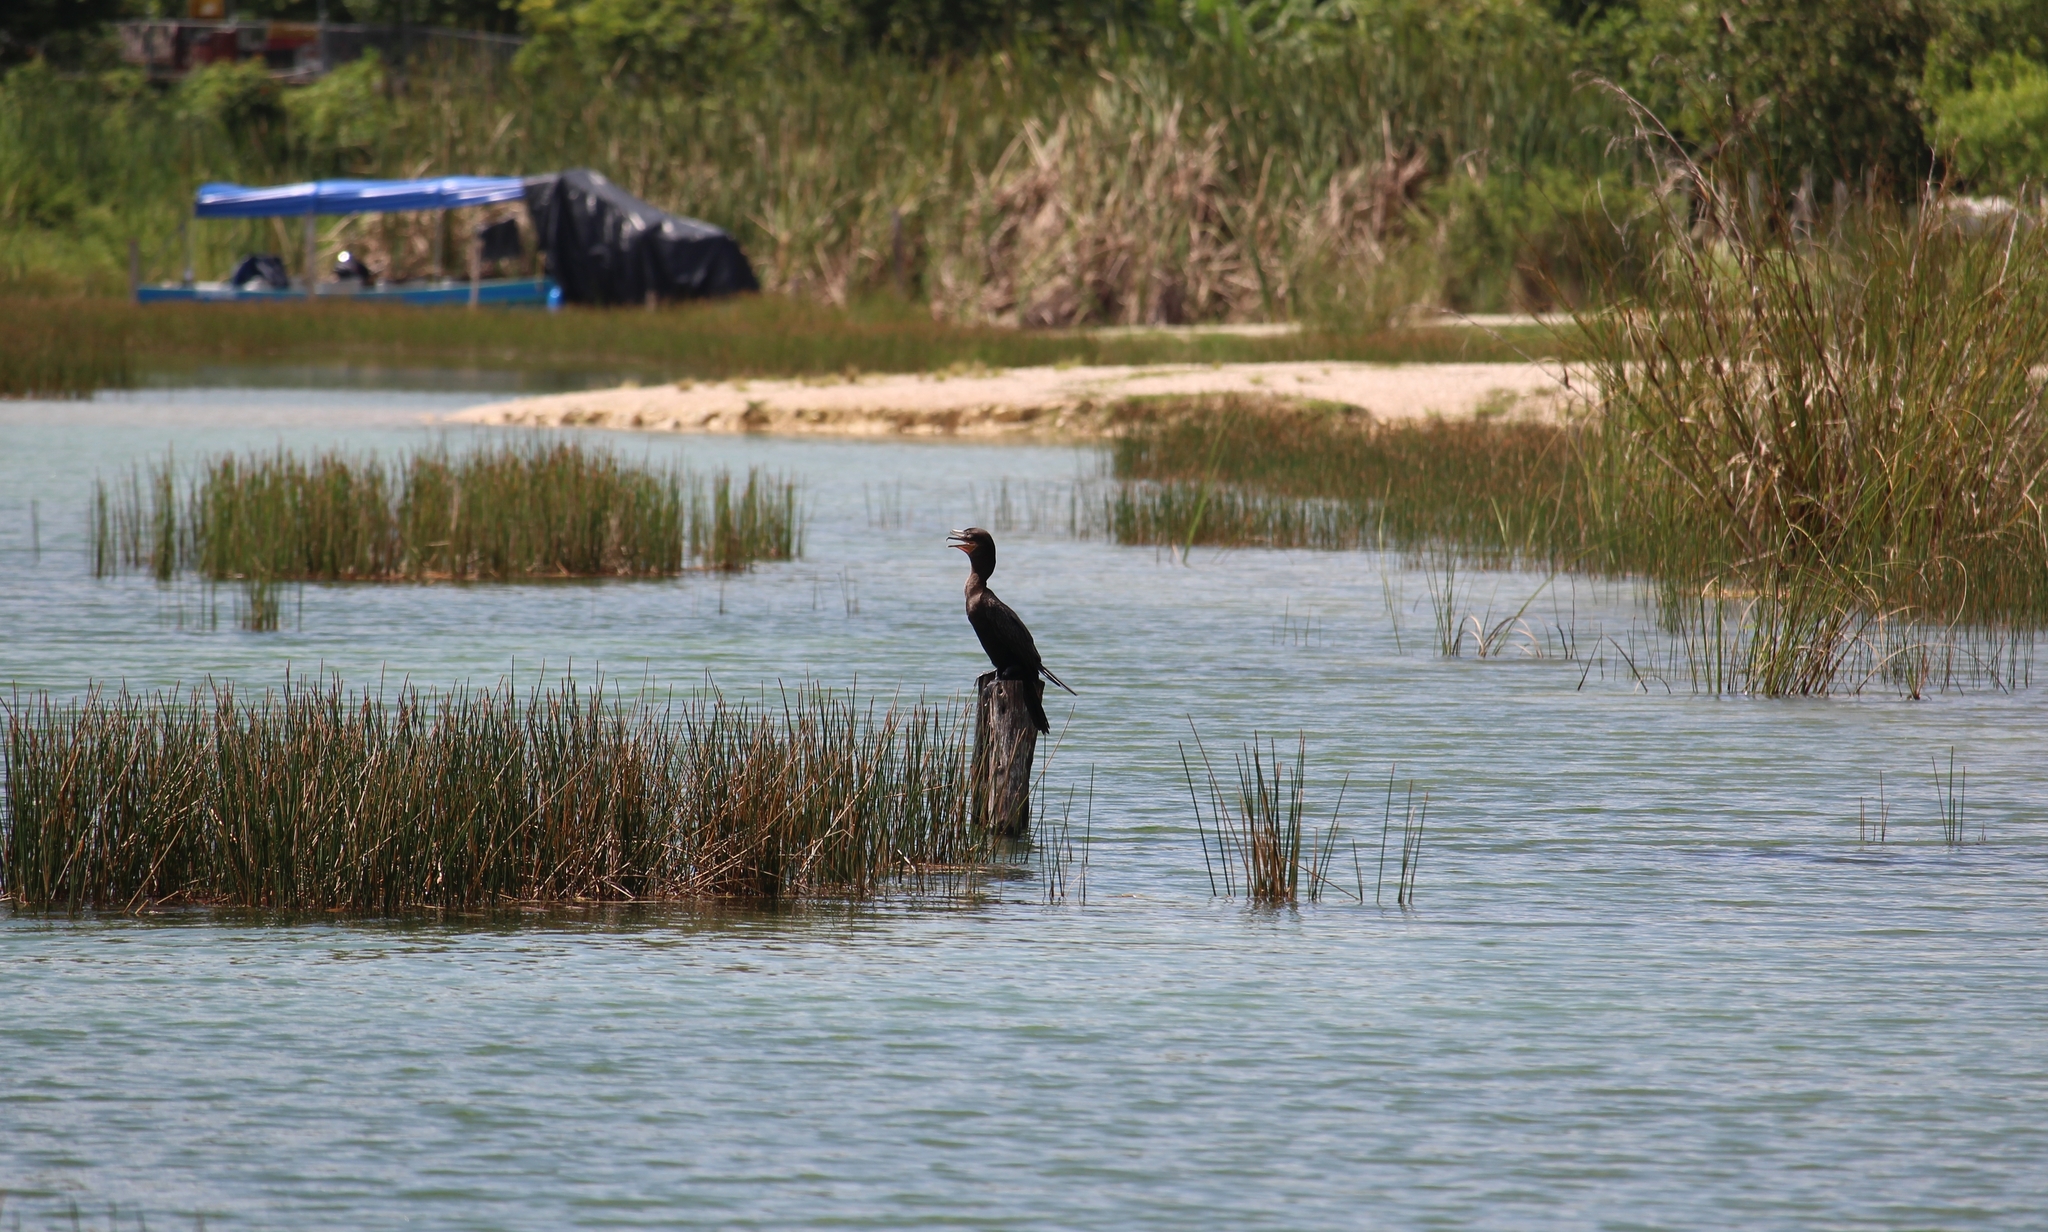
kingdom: Animalia
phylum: Chordata
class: Aves
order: Suliformes
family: Phalacrocoracidae
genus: Phalacrocorax
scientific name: Phalacrocorax brasilianus
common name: Neotropic cormorant
